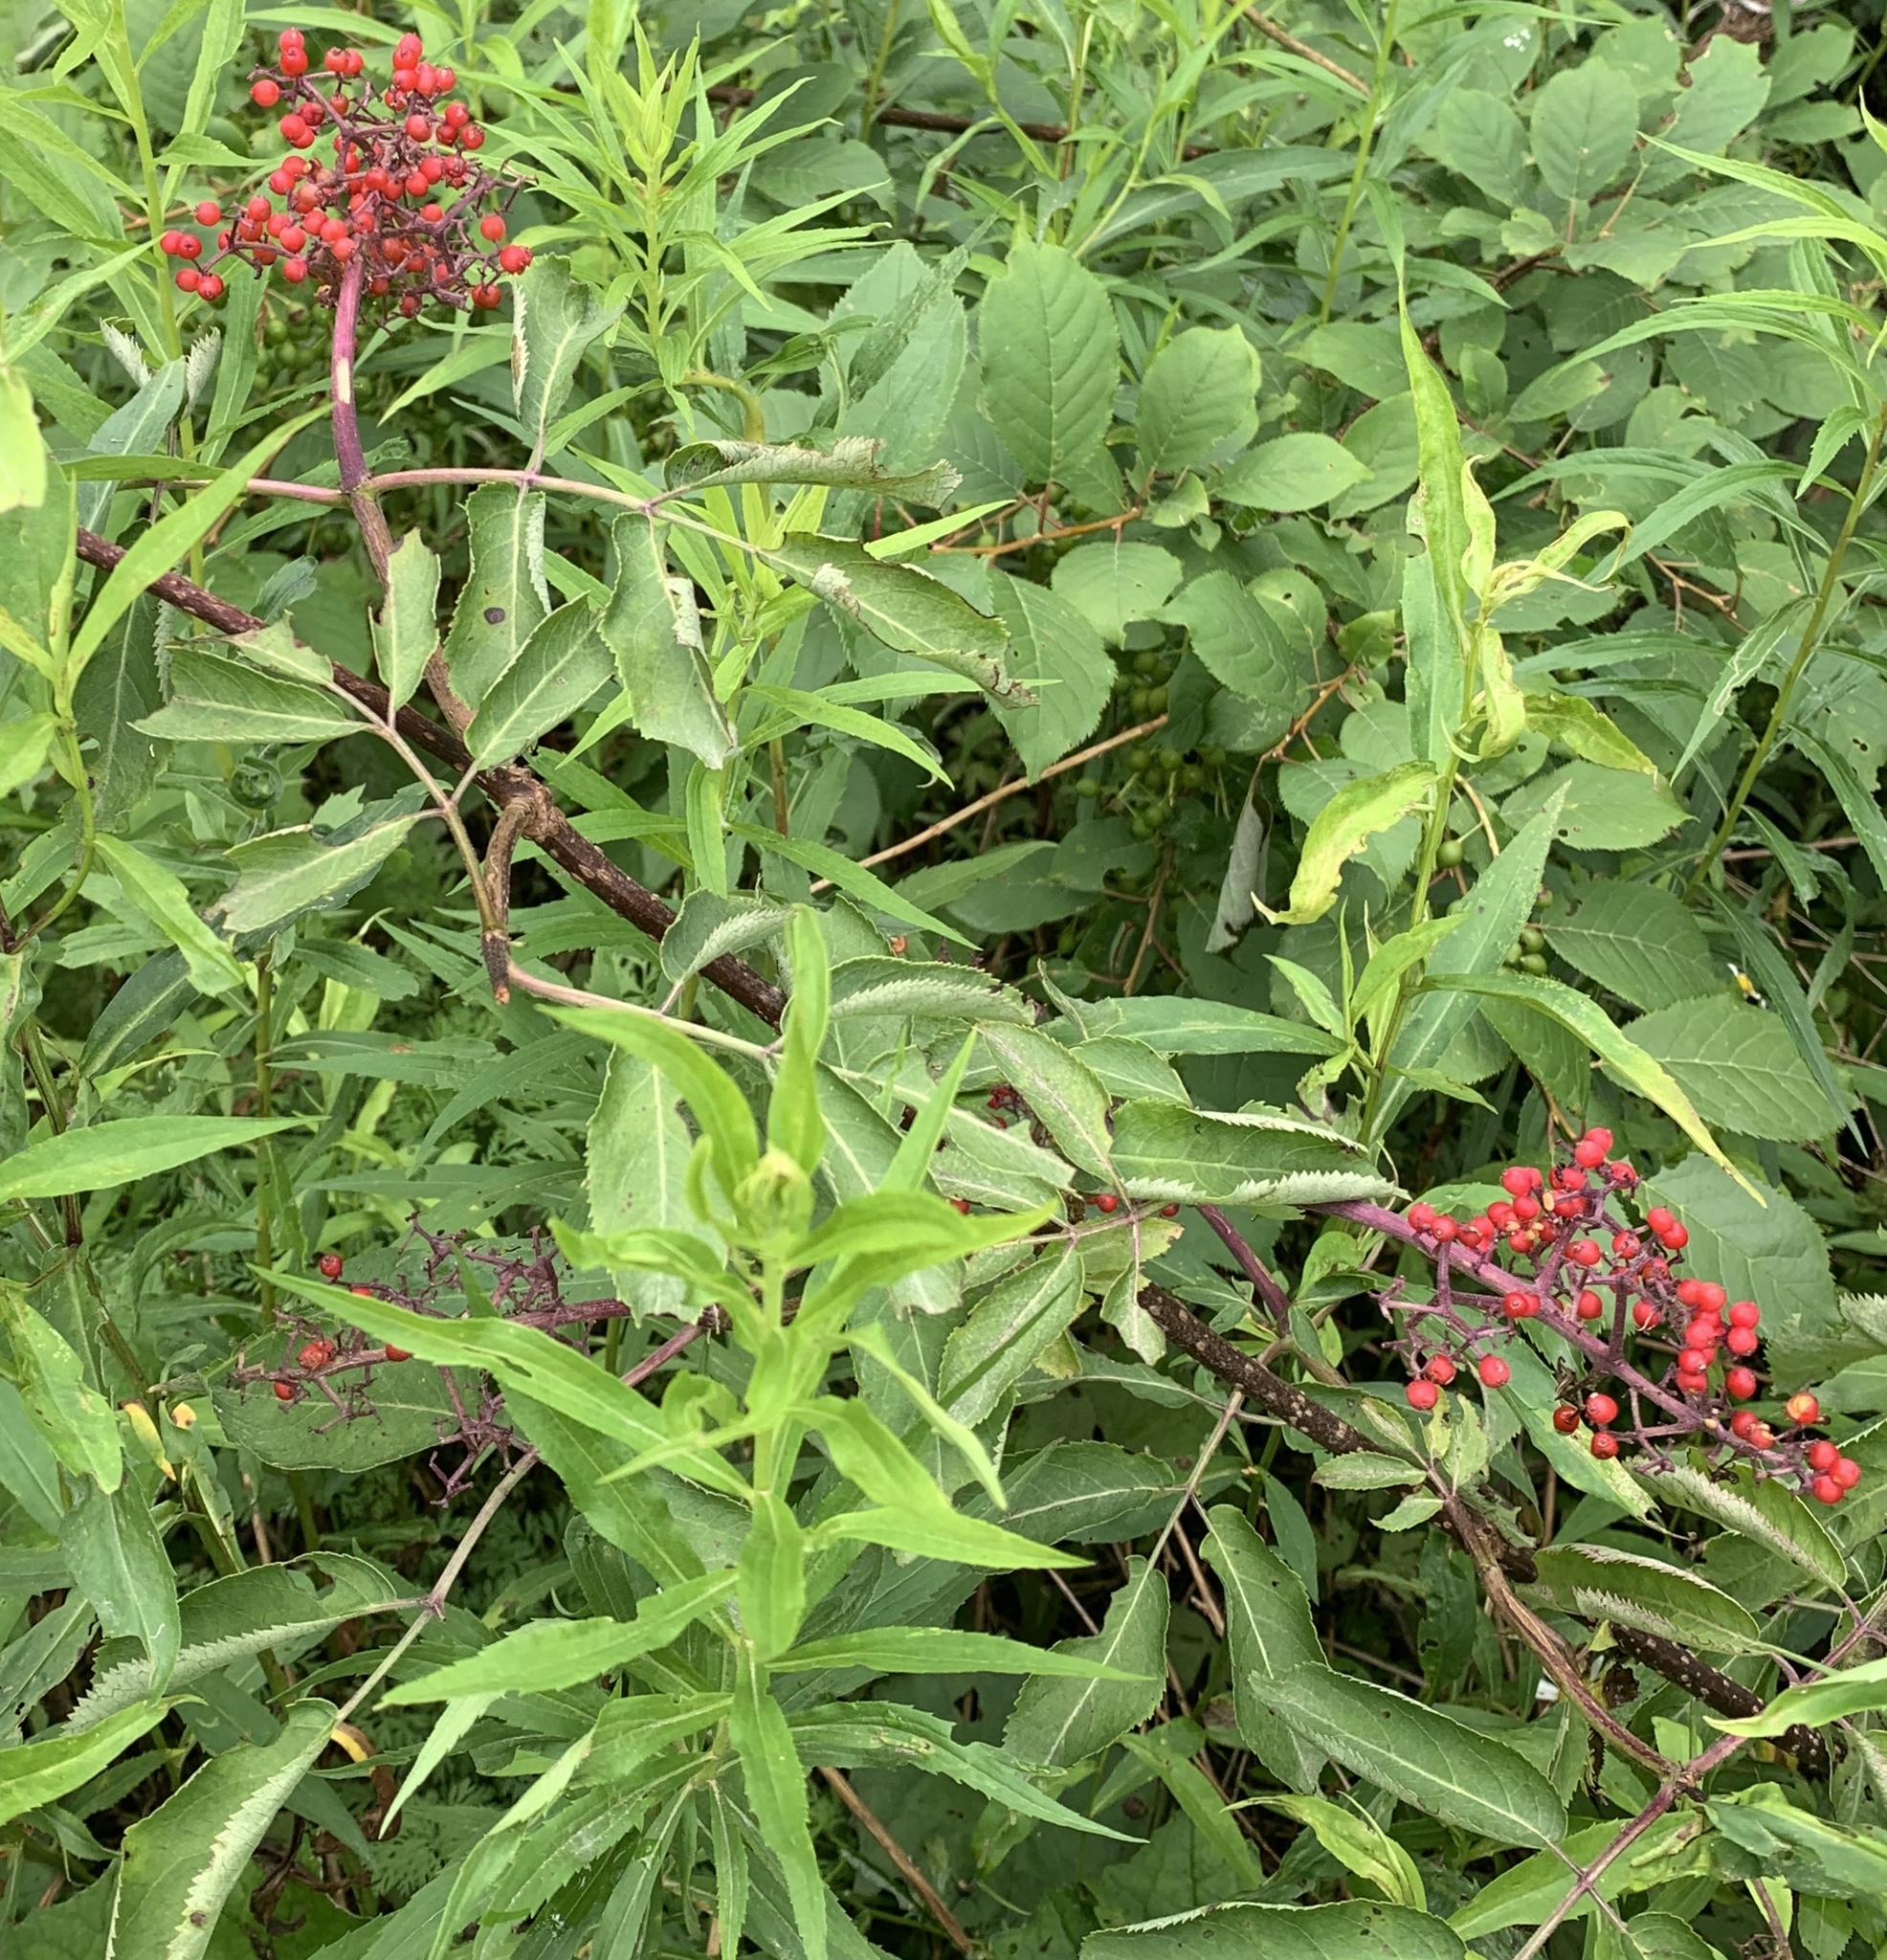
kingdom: Plantae
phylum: Tracheophyta
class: Magnoliopsida
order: Dipsacales
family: Viburnaceae
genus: Sambucus
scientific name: Sambucus racemosa
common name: Red-berried elder
